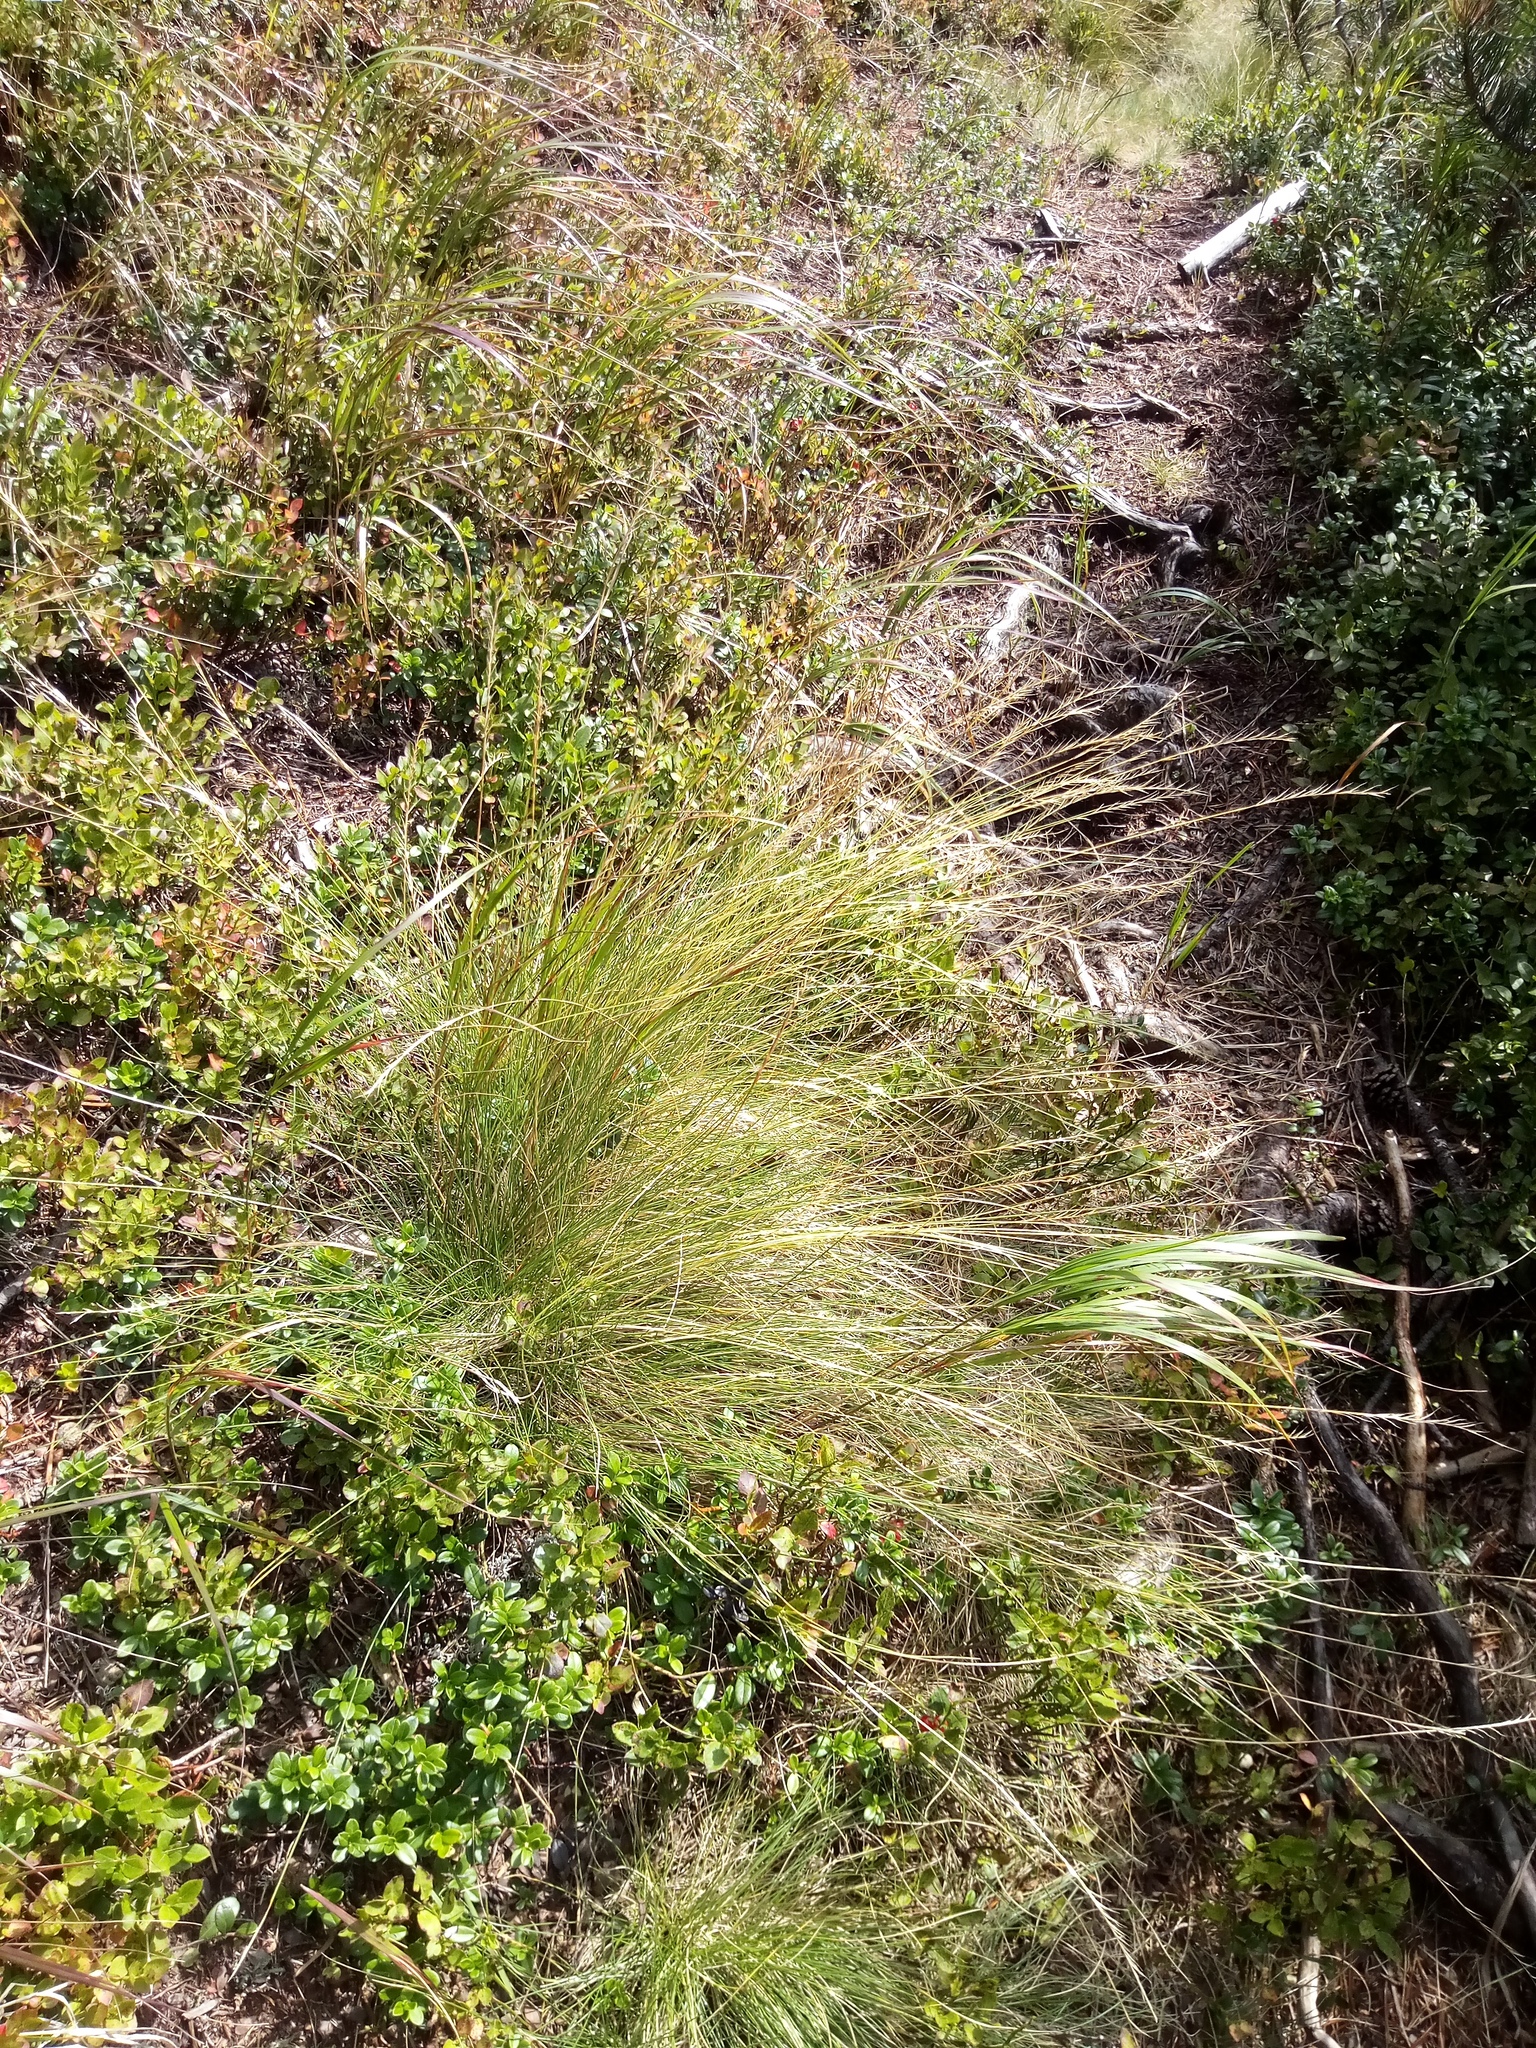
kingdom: Plantae
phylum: Tracheophyta
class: Liliopsida
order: Poales
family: Poaceae
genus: Nardus
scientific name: Nardus stricta
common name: Mat-grass
